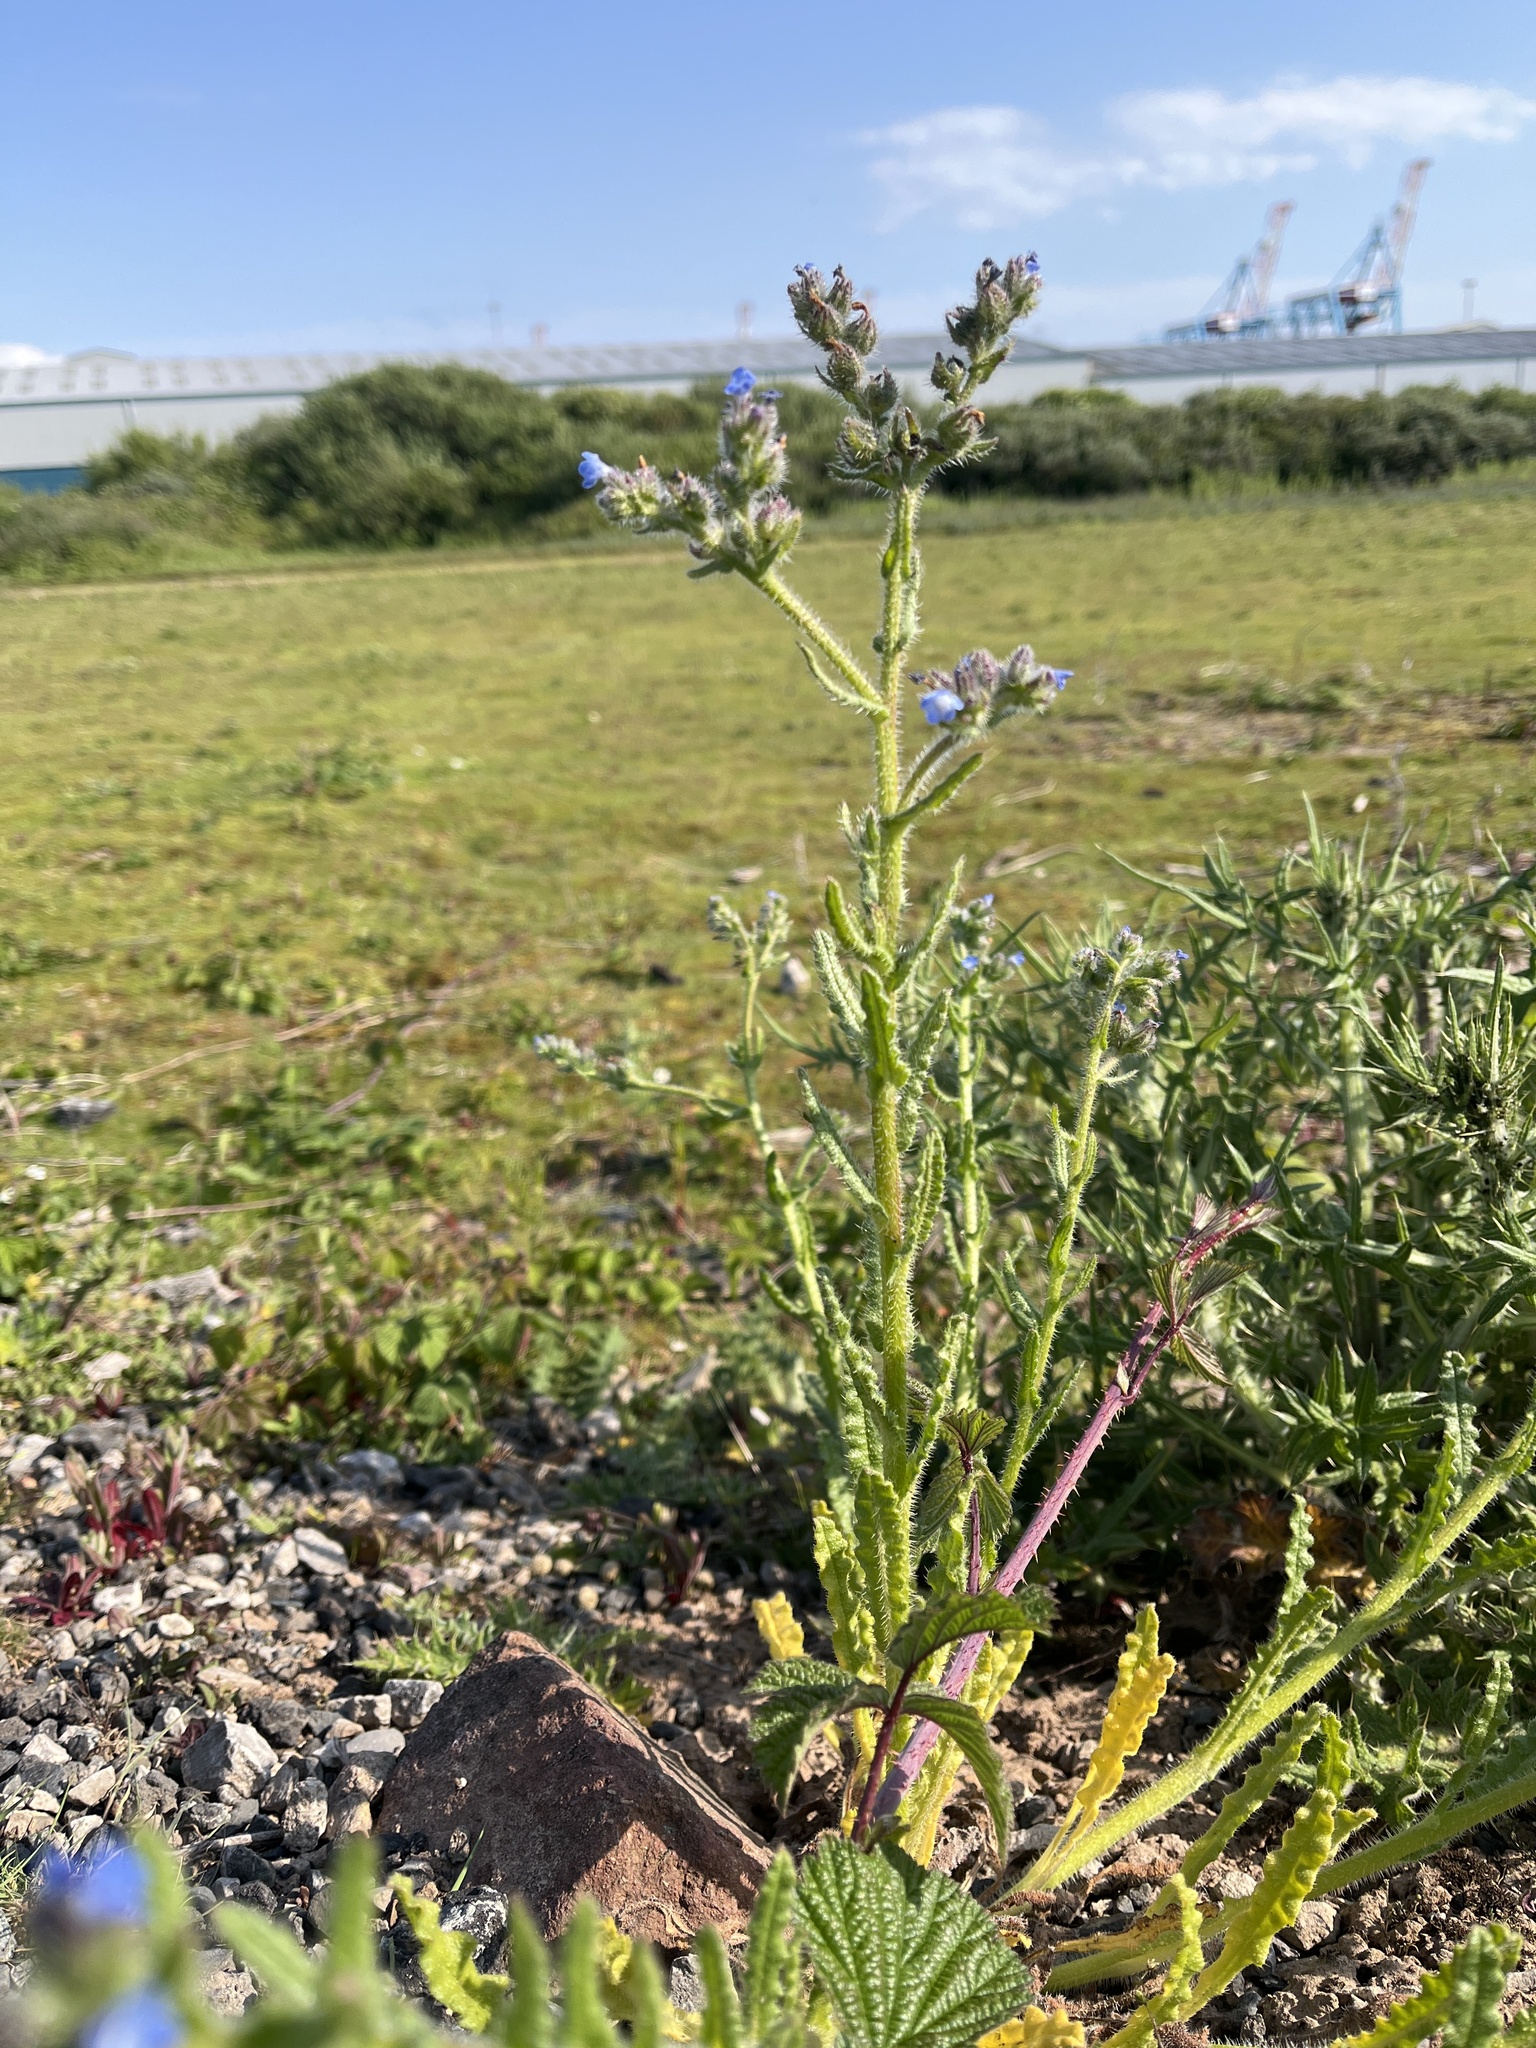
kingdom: Plantae
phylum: Tracheophyta
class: Magnoliopsida
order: Boraginales
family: Boraginaceae
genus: Lycopsis
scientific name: Lycopsis arvensis
